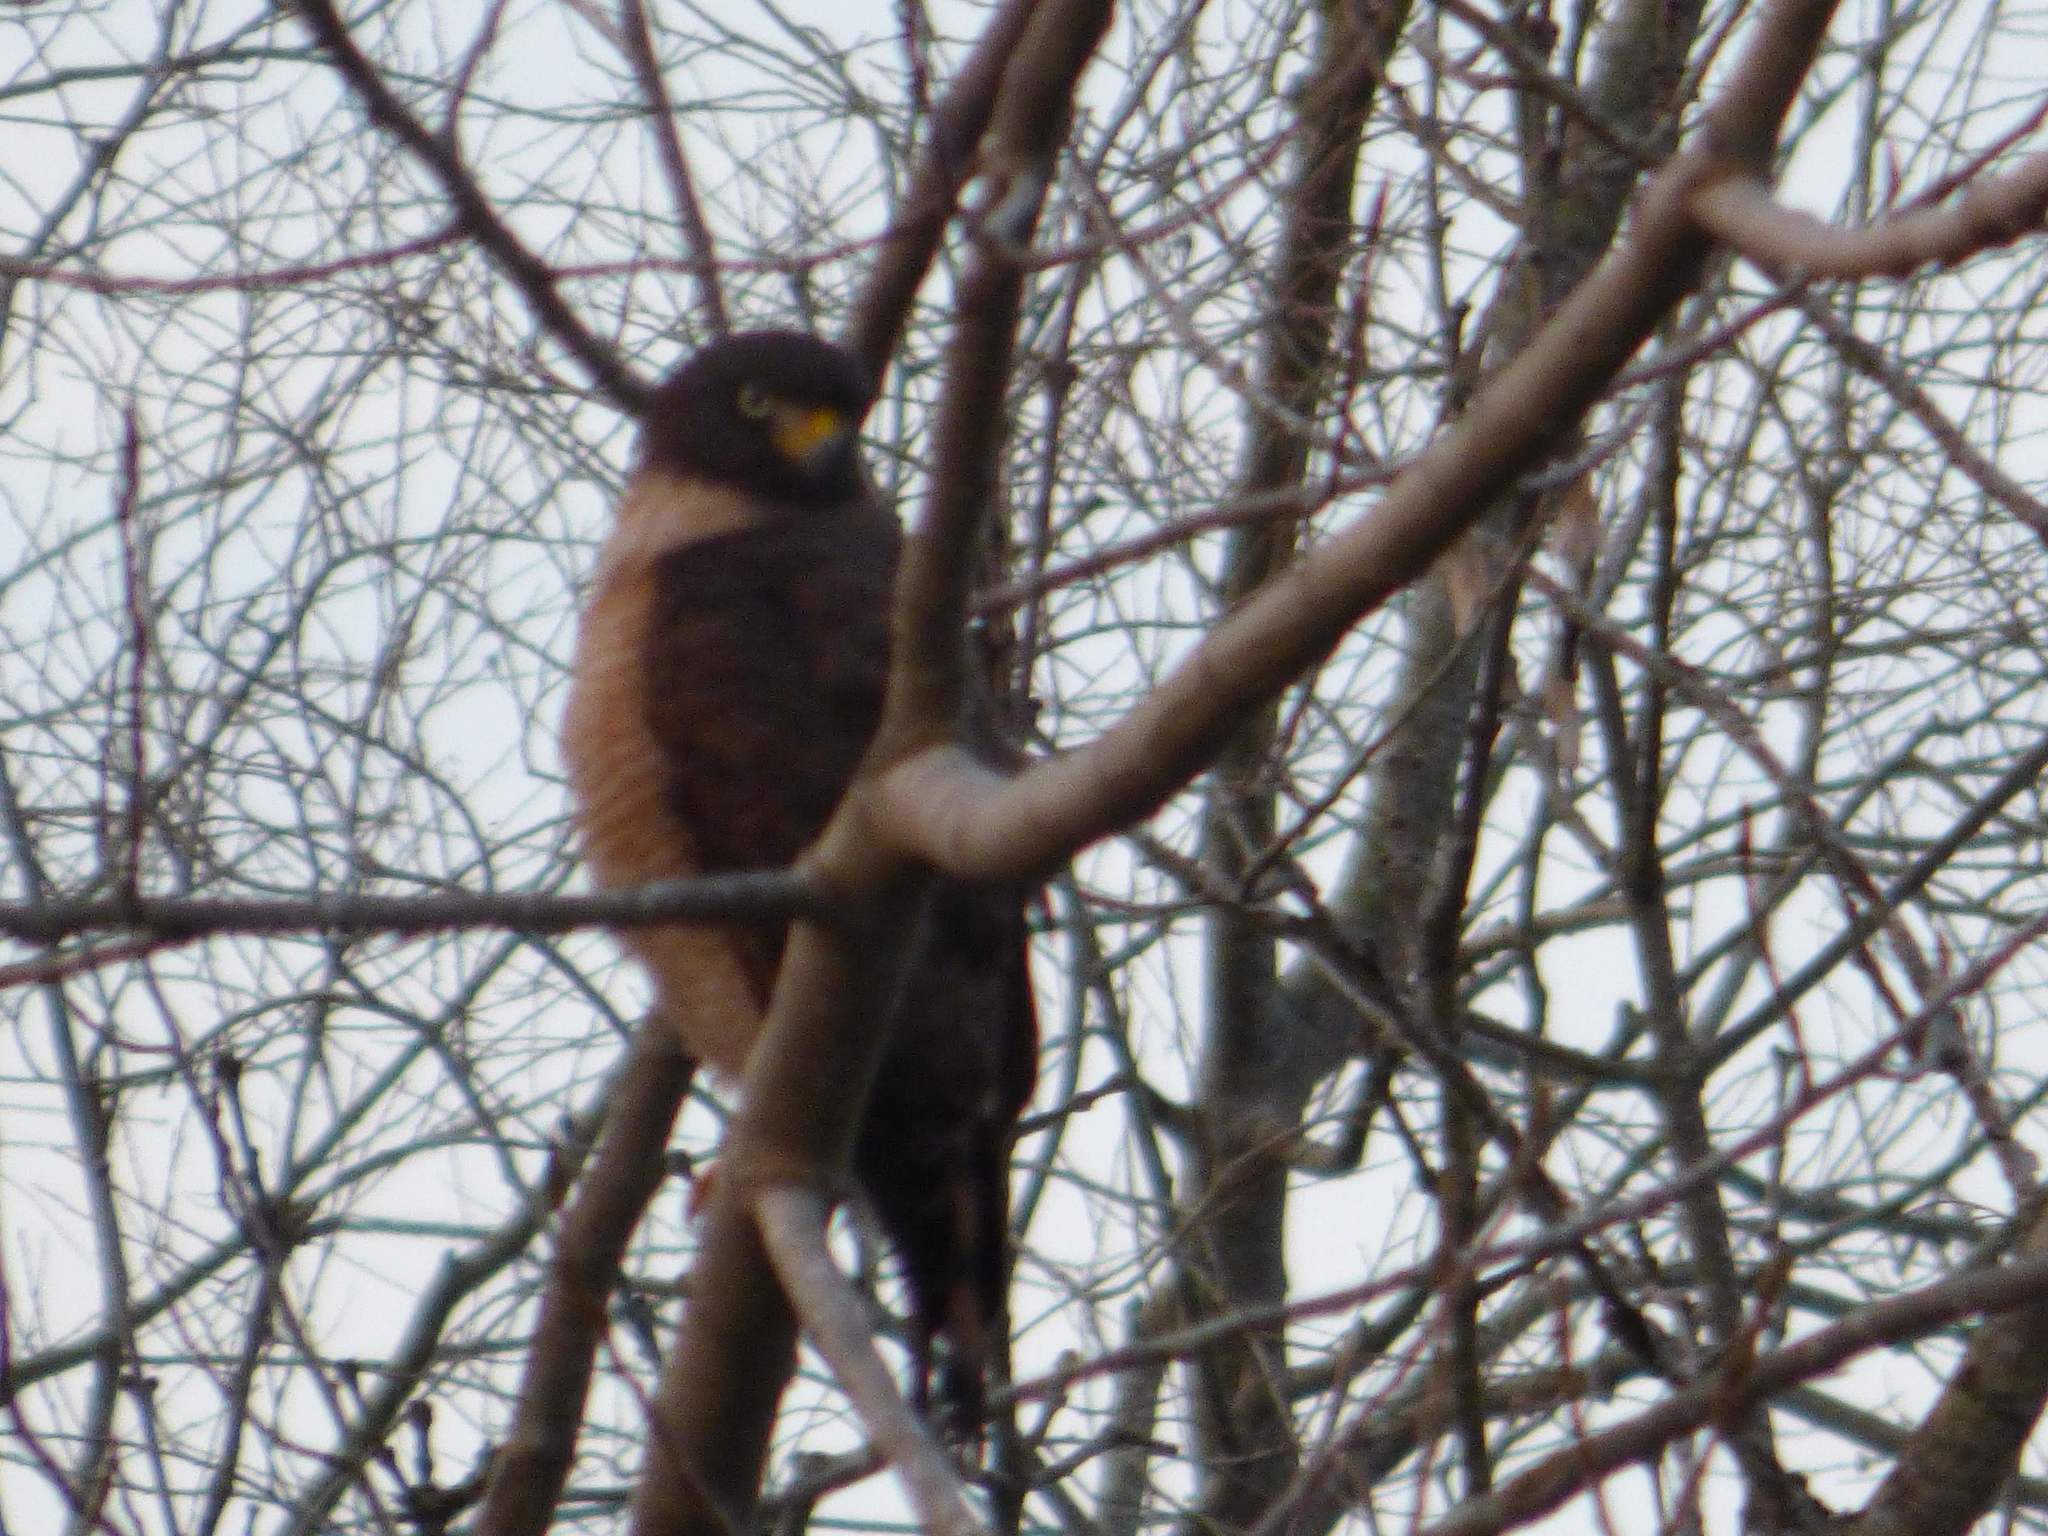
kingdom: Animalia
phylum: Chordata
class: Aves
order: Accipitriformes
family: Accipitridae
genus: Rupornis
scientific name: Rupornis magnirostris
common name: Roadside hawk
